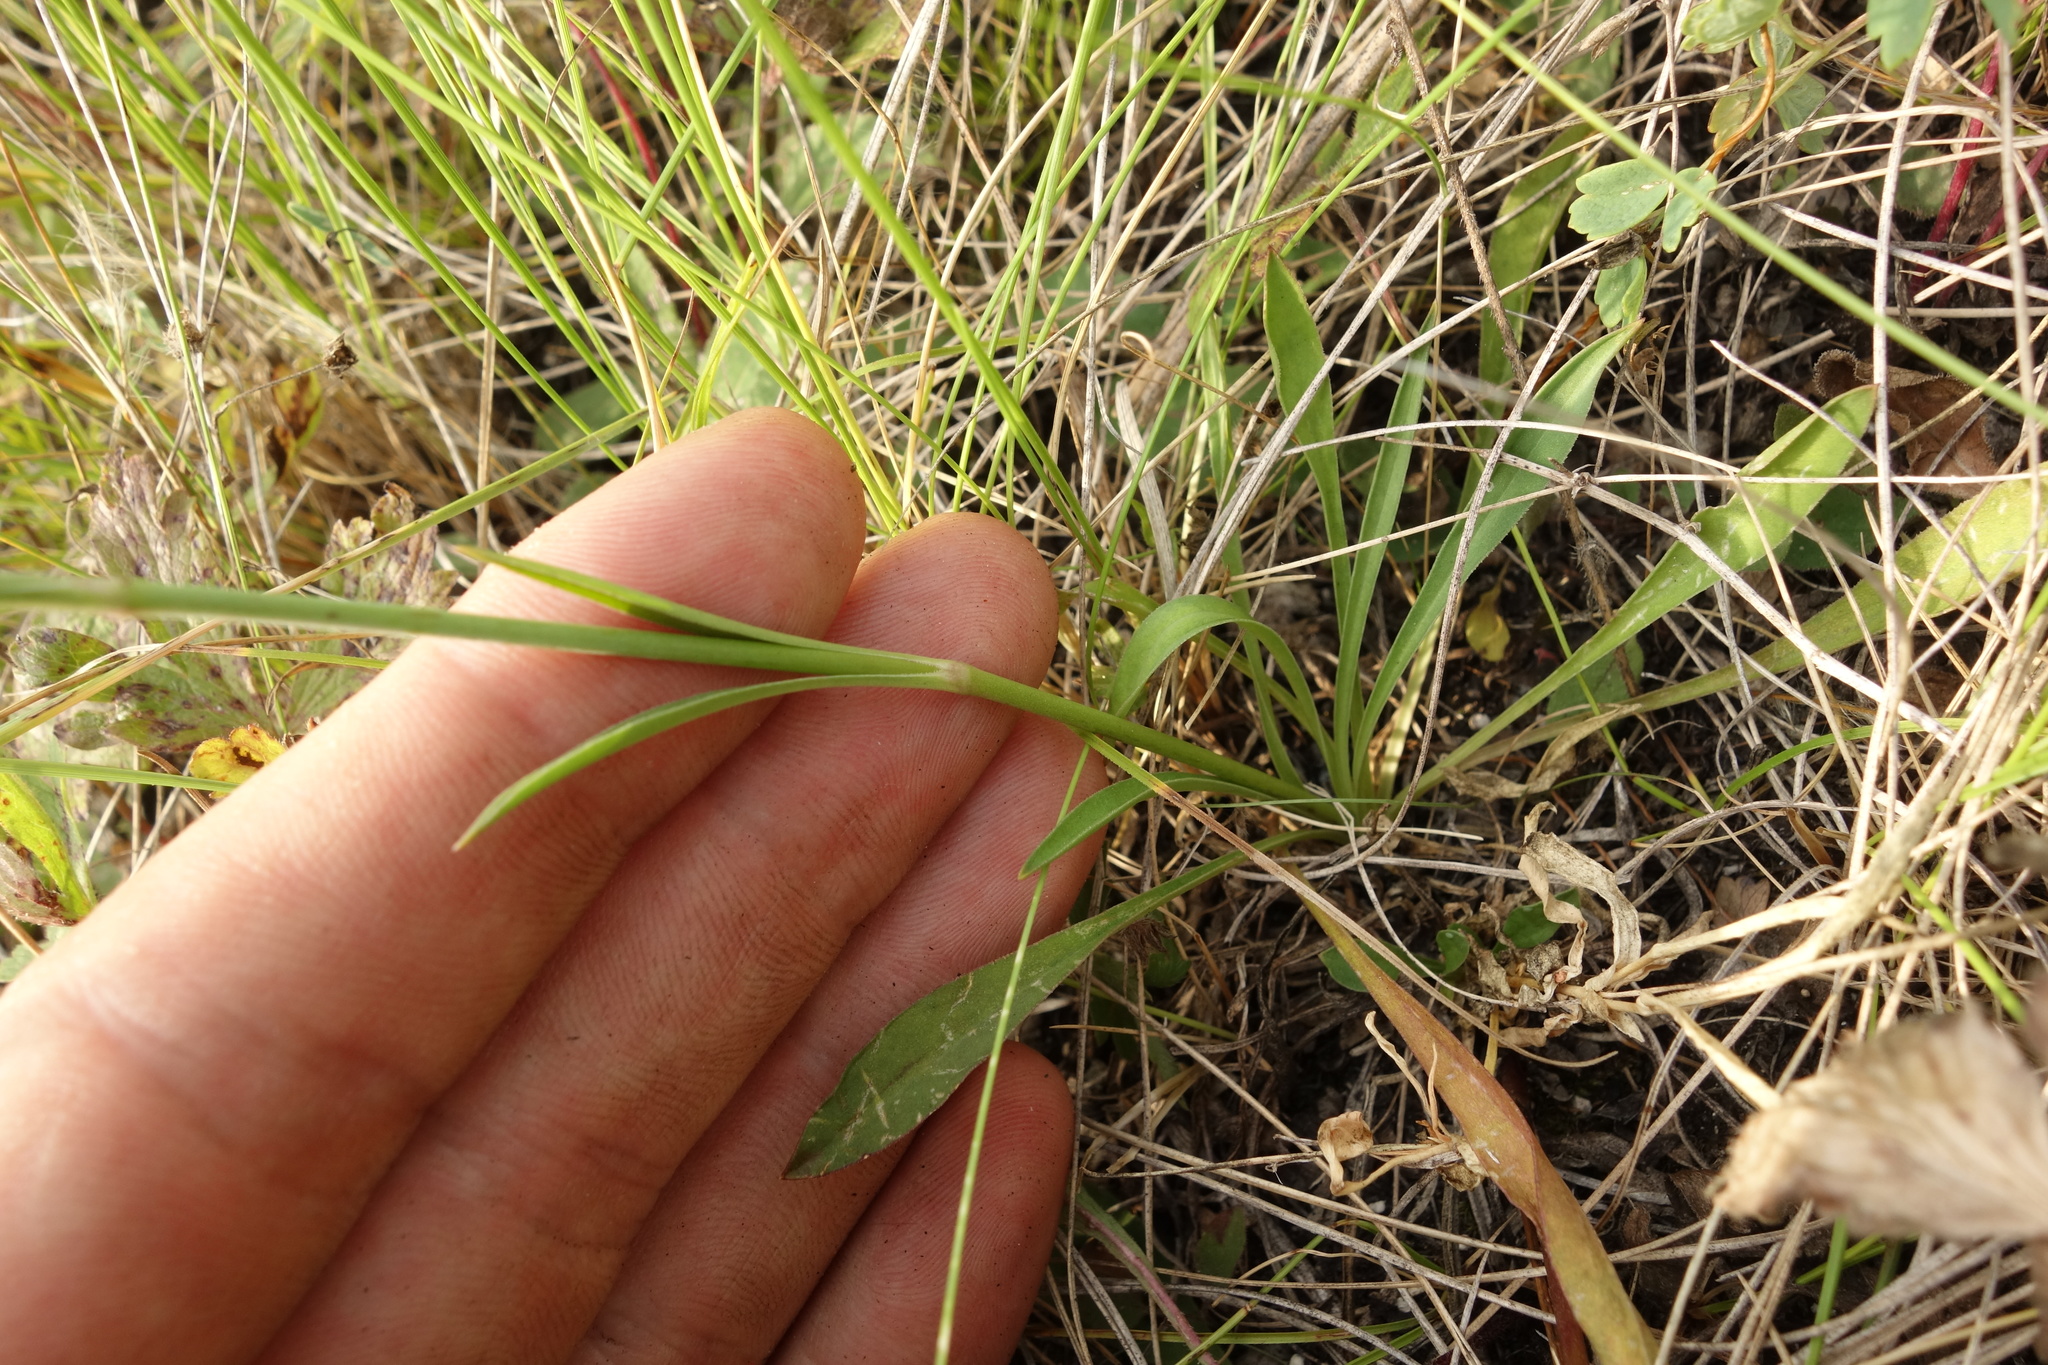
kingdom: Plantae
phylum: Tracheophyta
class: Magnoliopsida
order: Caryophyllales
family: Caryophyllaceae
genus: Silene
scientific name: Silene chlorantha
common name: Yellowgreen catchfly
